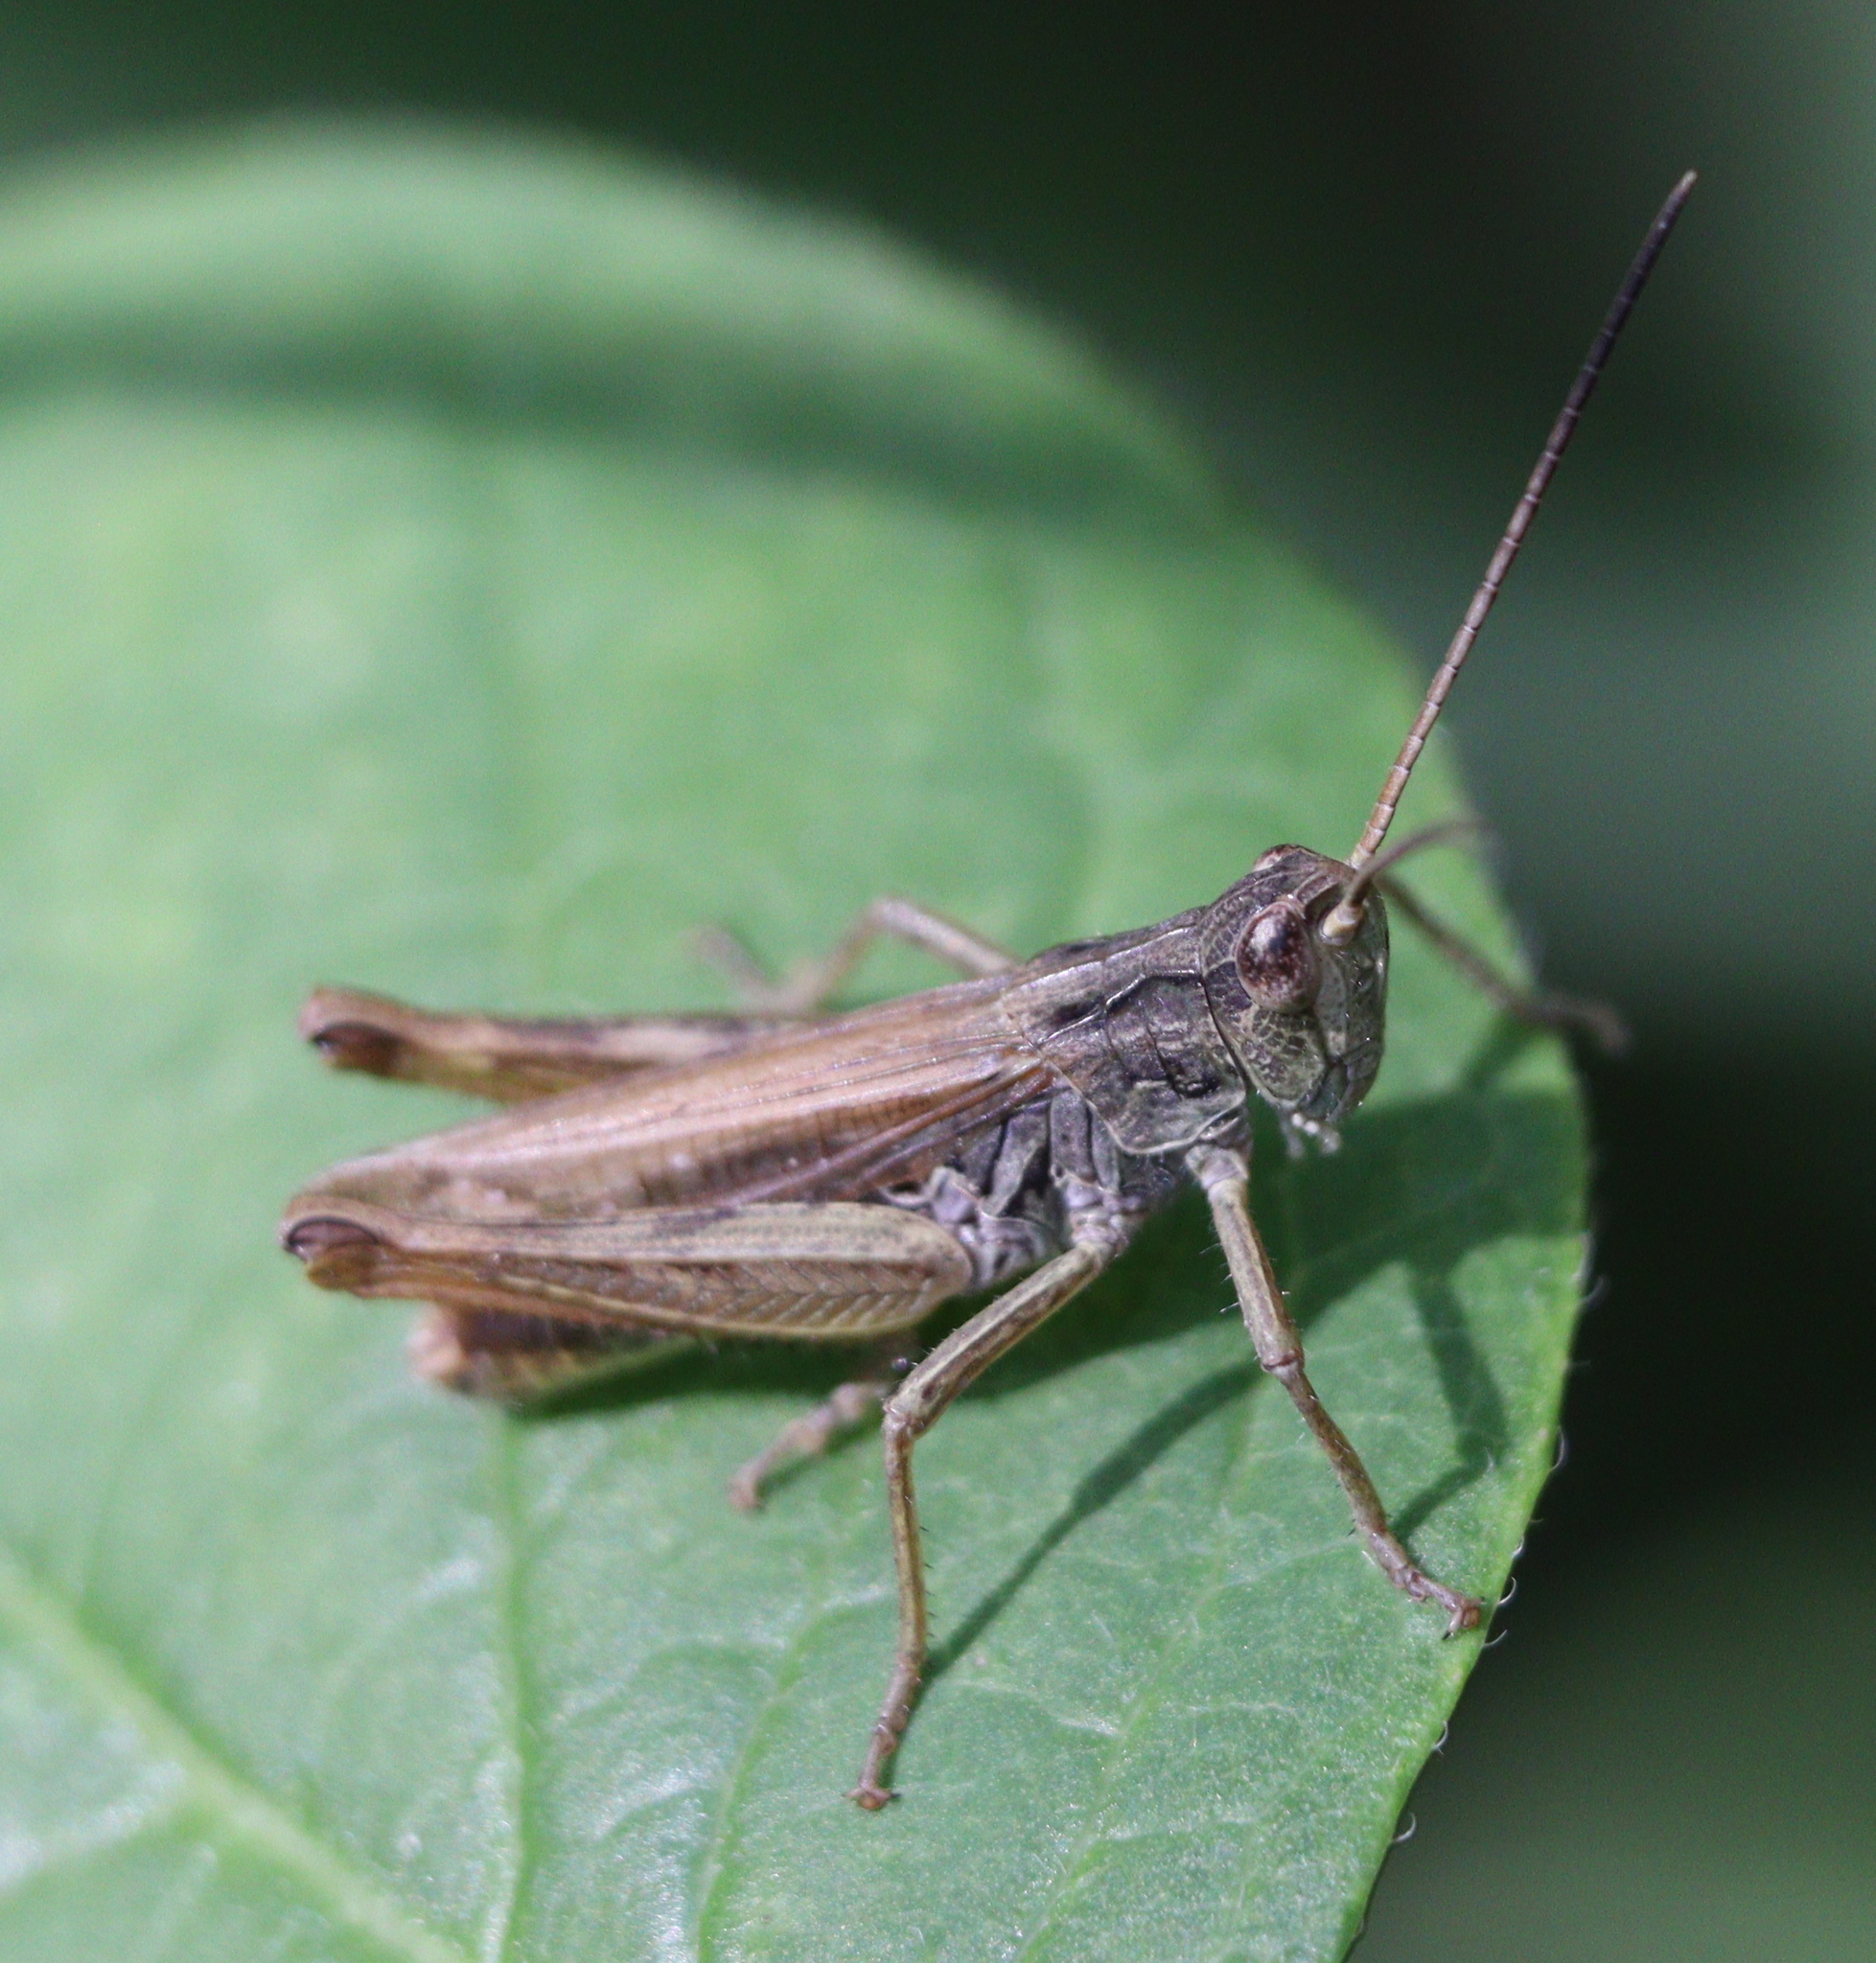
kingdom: Animalia
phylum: Arthropoda
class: Insecta
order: Orthoptera
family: Acrididae
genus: Chorthippus
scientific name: Chorthippus apricarius
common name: Upland field grasshopper
